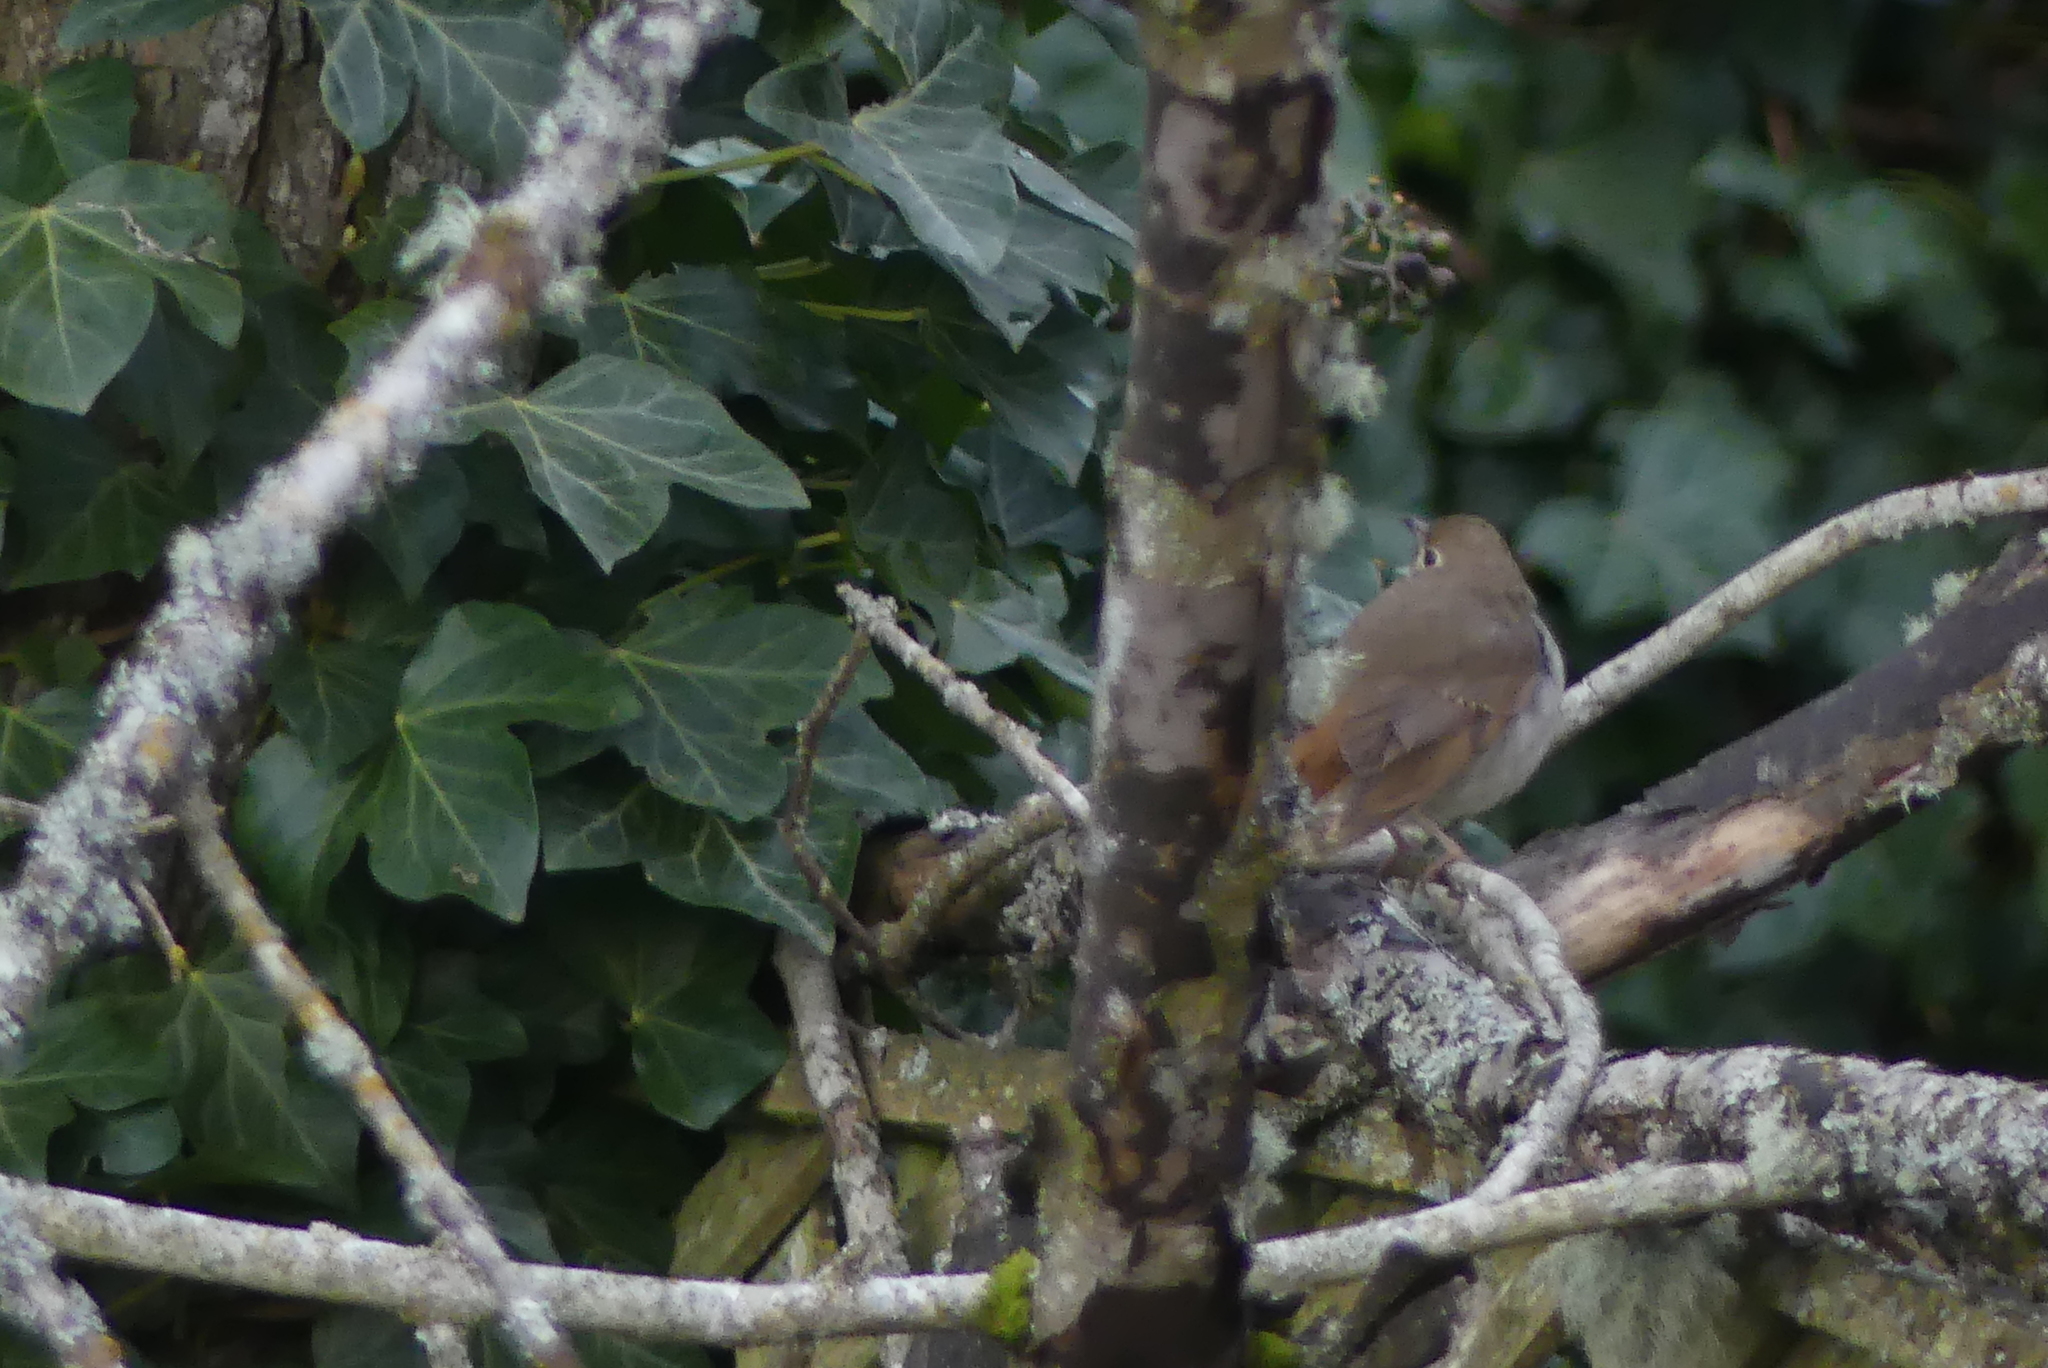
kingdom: Animalia
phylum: Chordata
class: Aves
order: Passeriformes
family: Turdidae
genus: Catharus
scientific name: Catharus guttatus
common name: Hermit thrush
